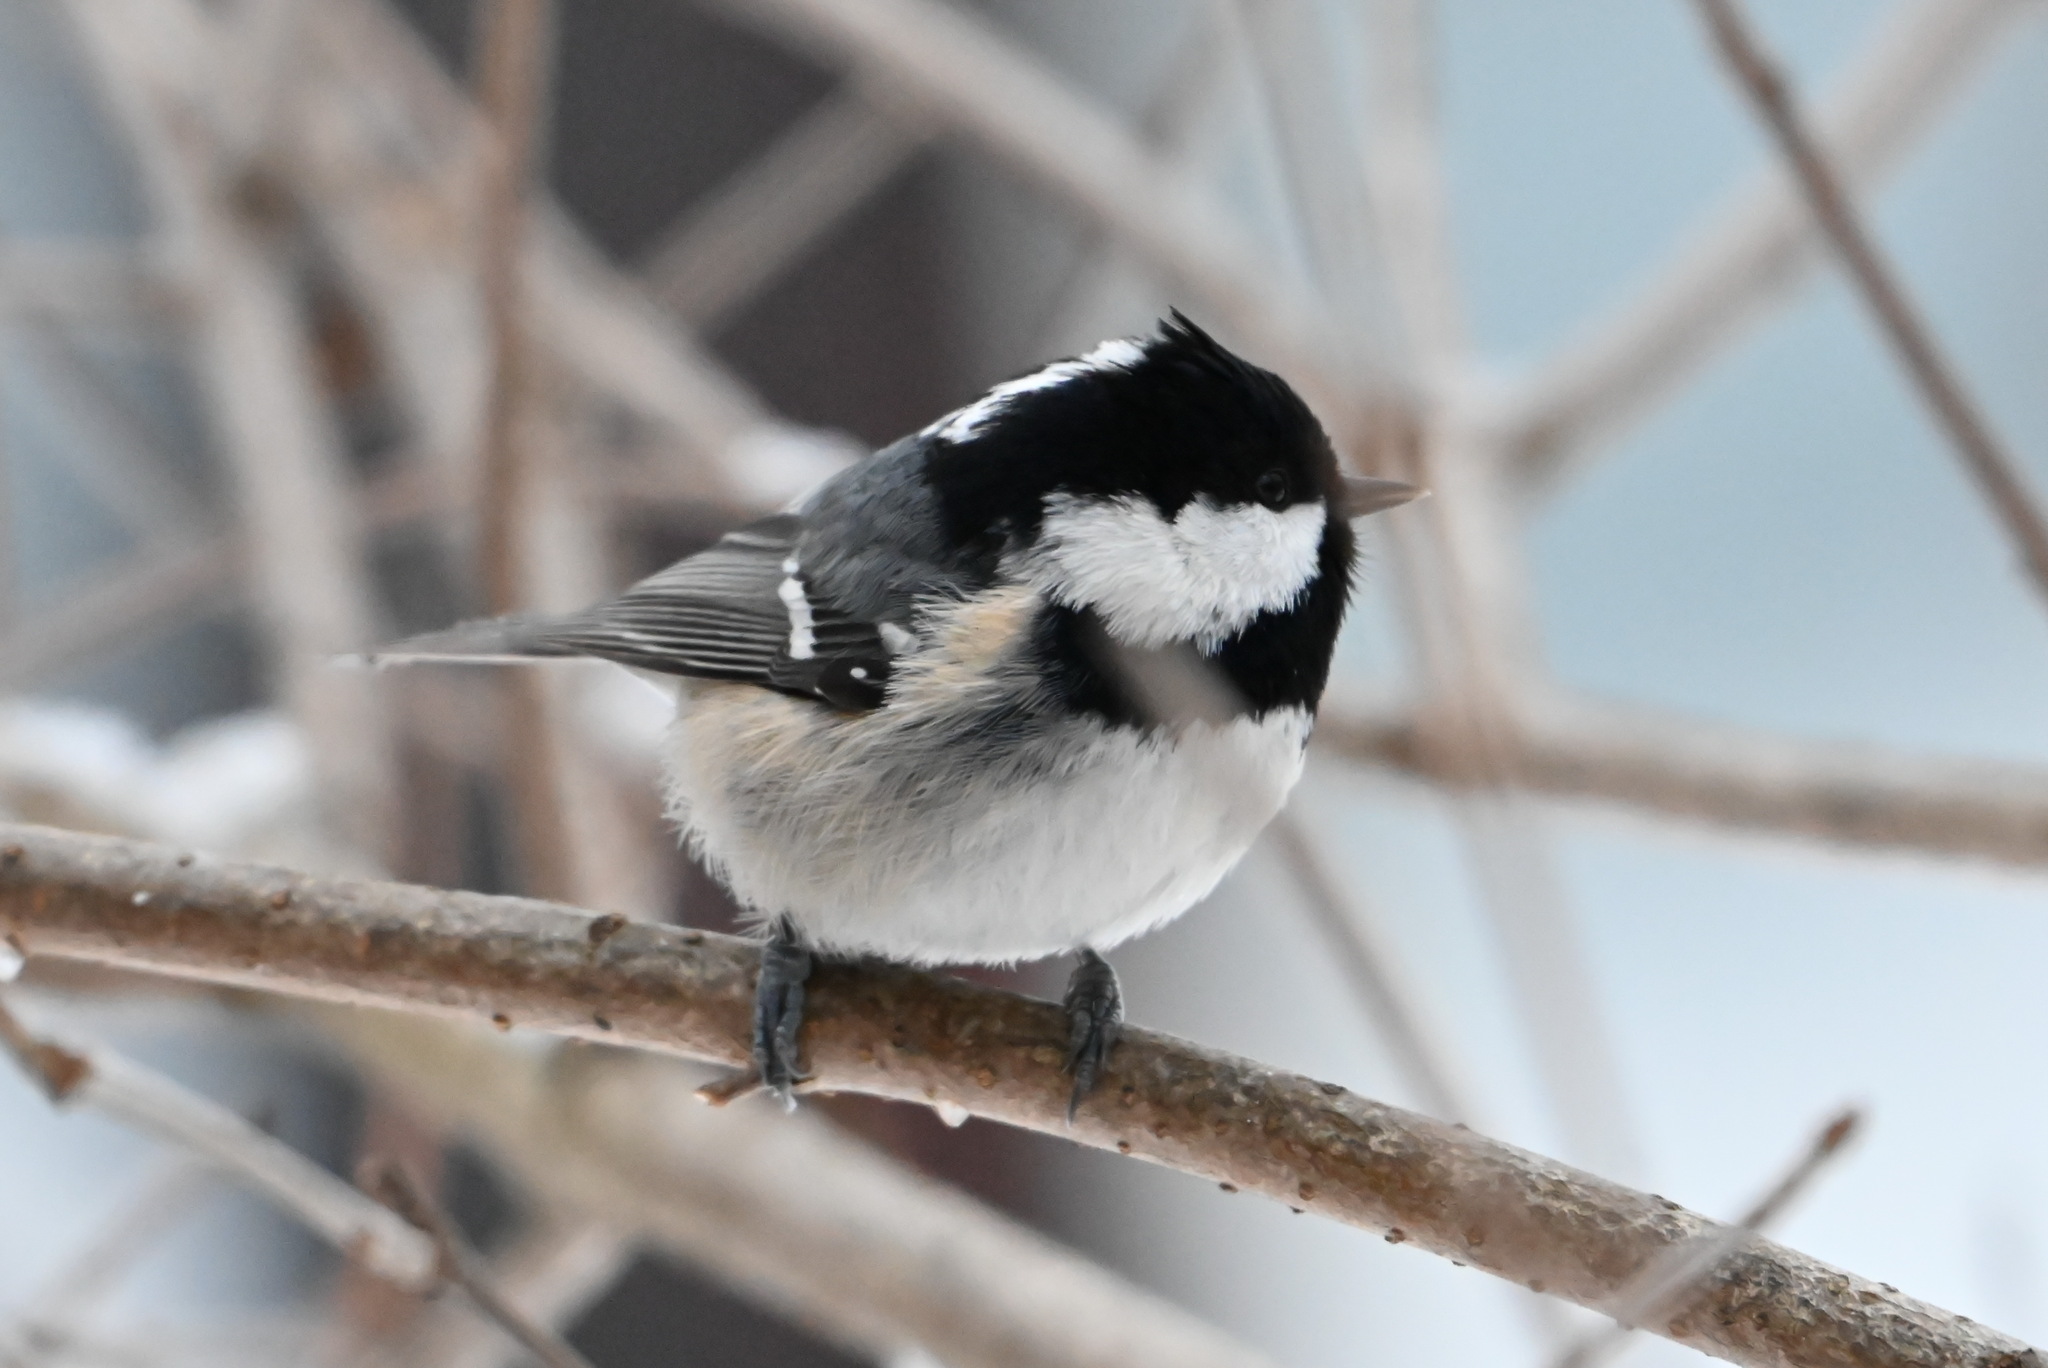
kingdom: Animalia
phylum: Chordata
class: Aves
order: Passeriformes
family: Paridae
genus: Periparus
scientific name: Periparus ater
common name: Coal tit
